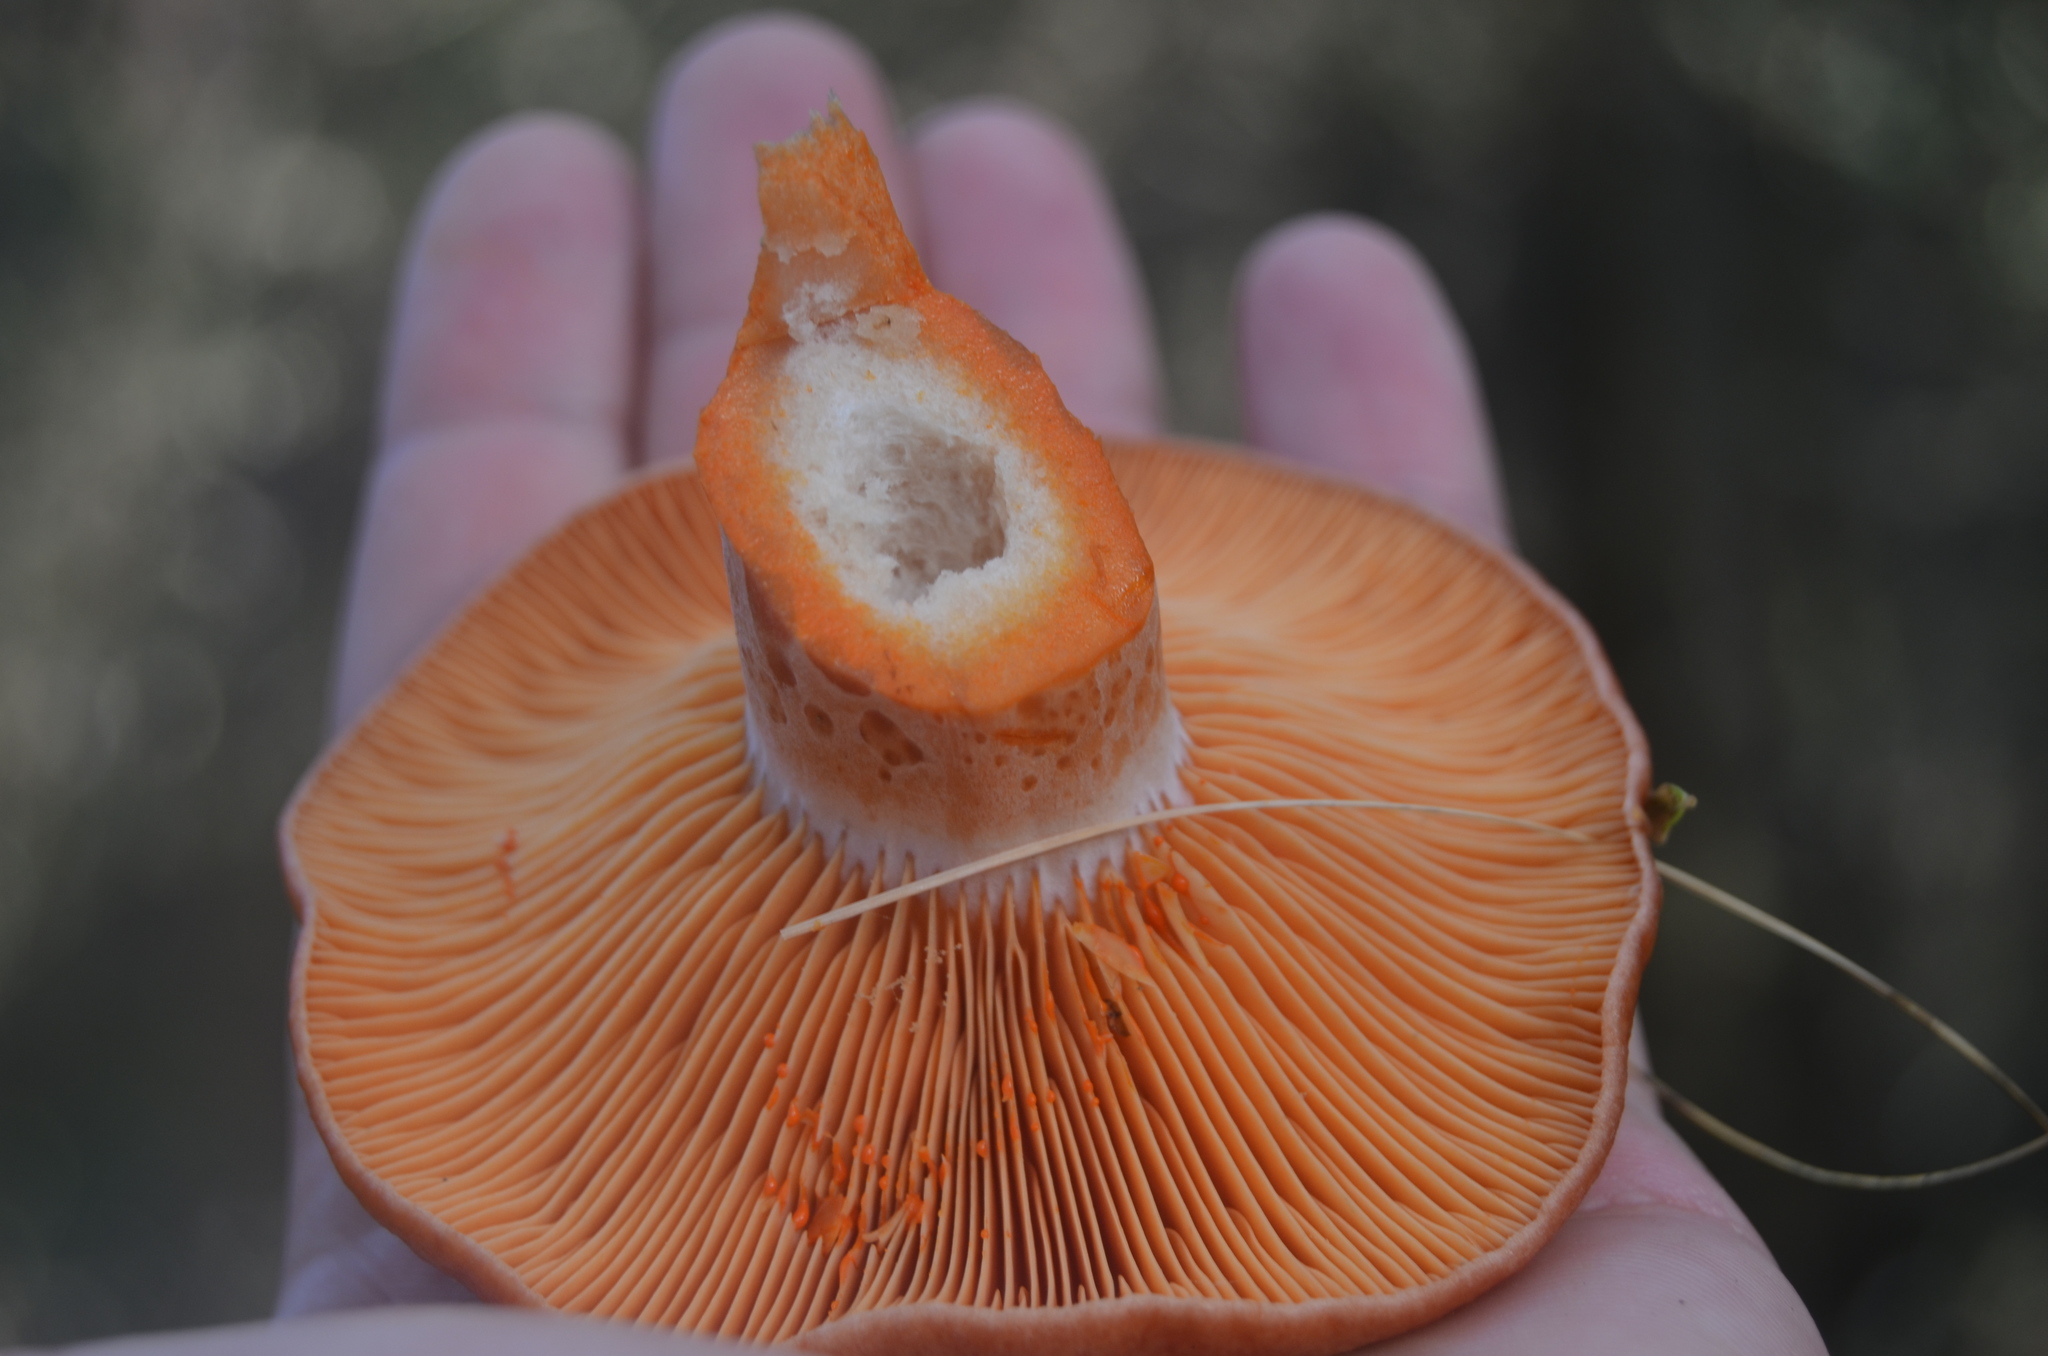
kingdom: Fungi
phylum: Basidiomycota
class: Agaricomycetes
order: Russulales
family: Russulaceae
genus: Lactarius
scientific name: Lactarius deliciosus
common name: Saffron milk-cap
